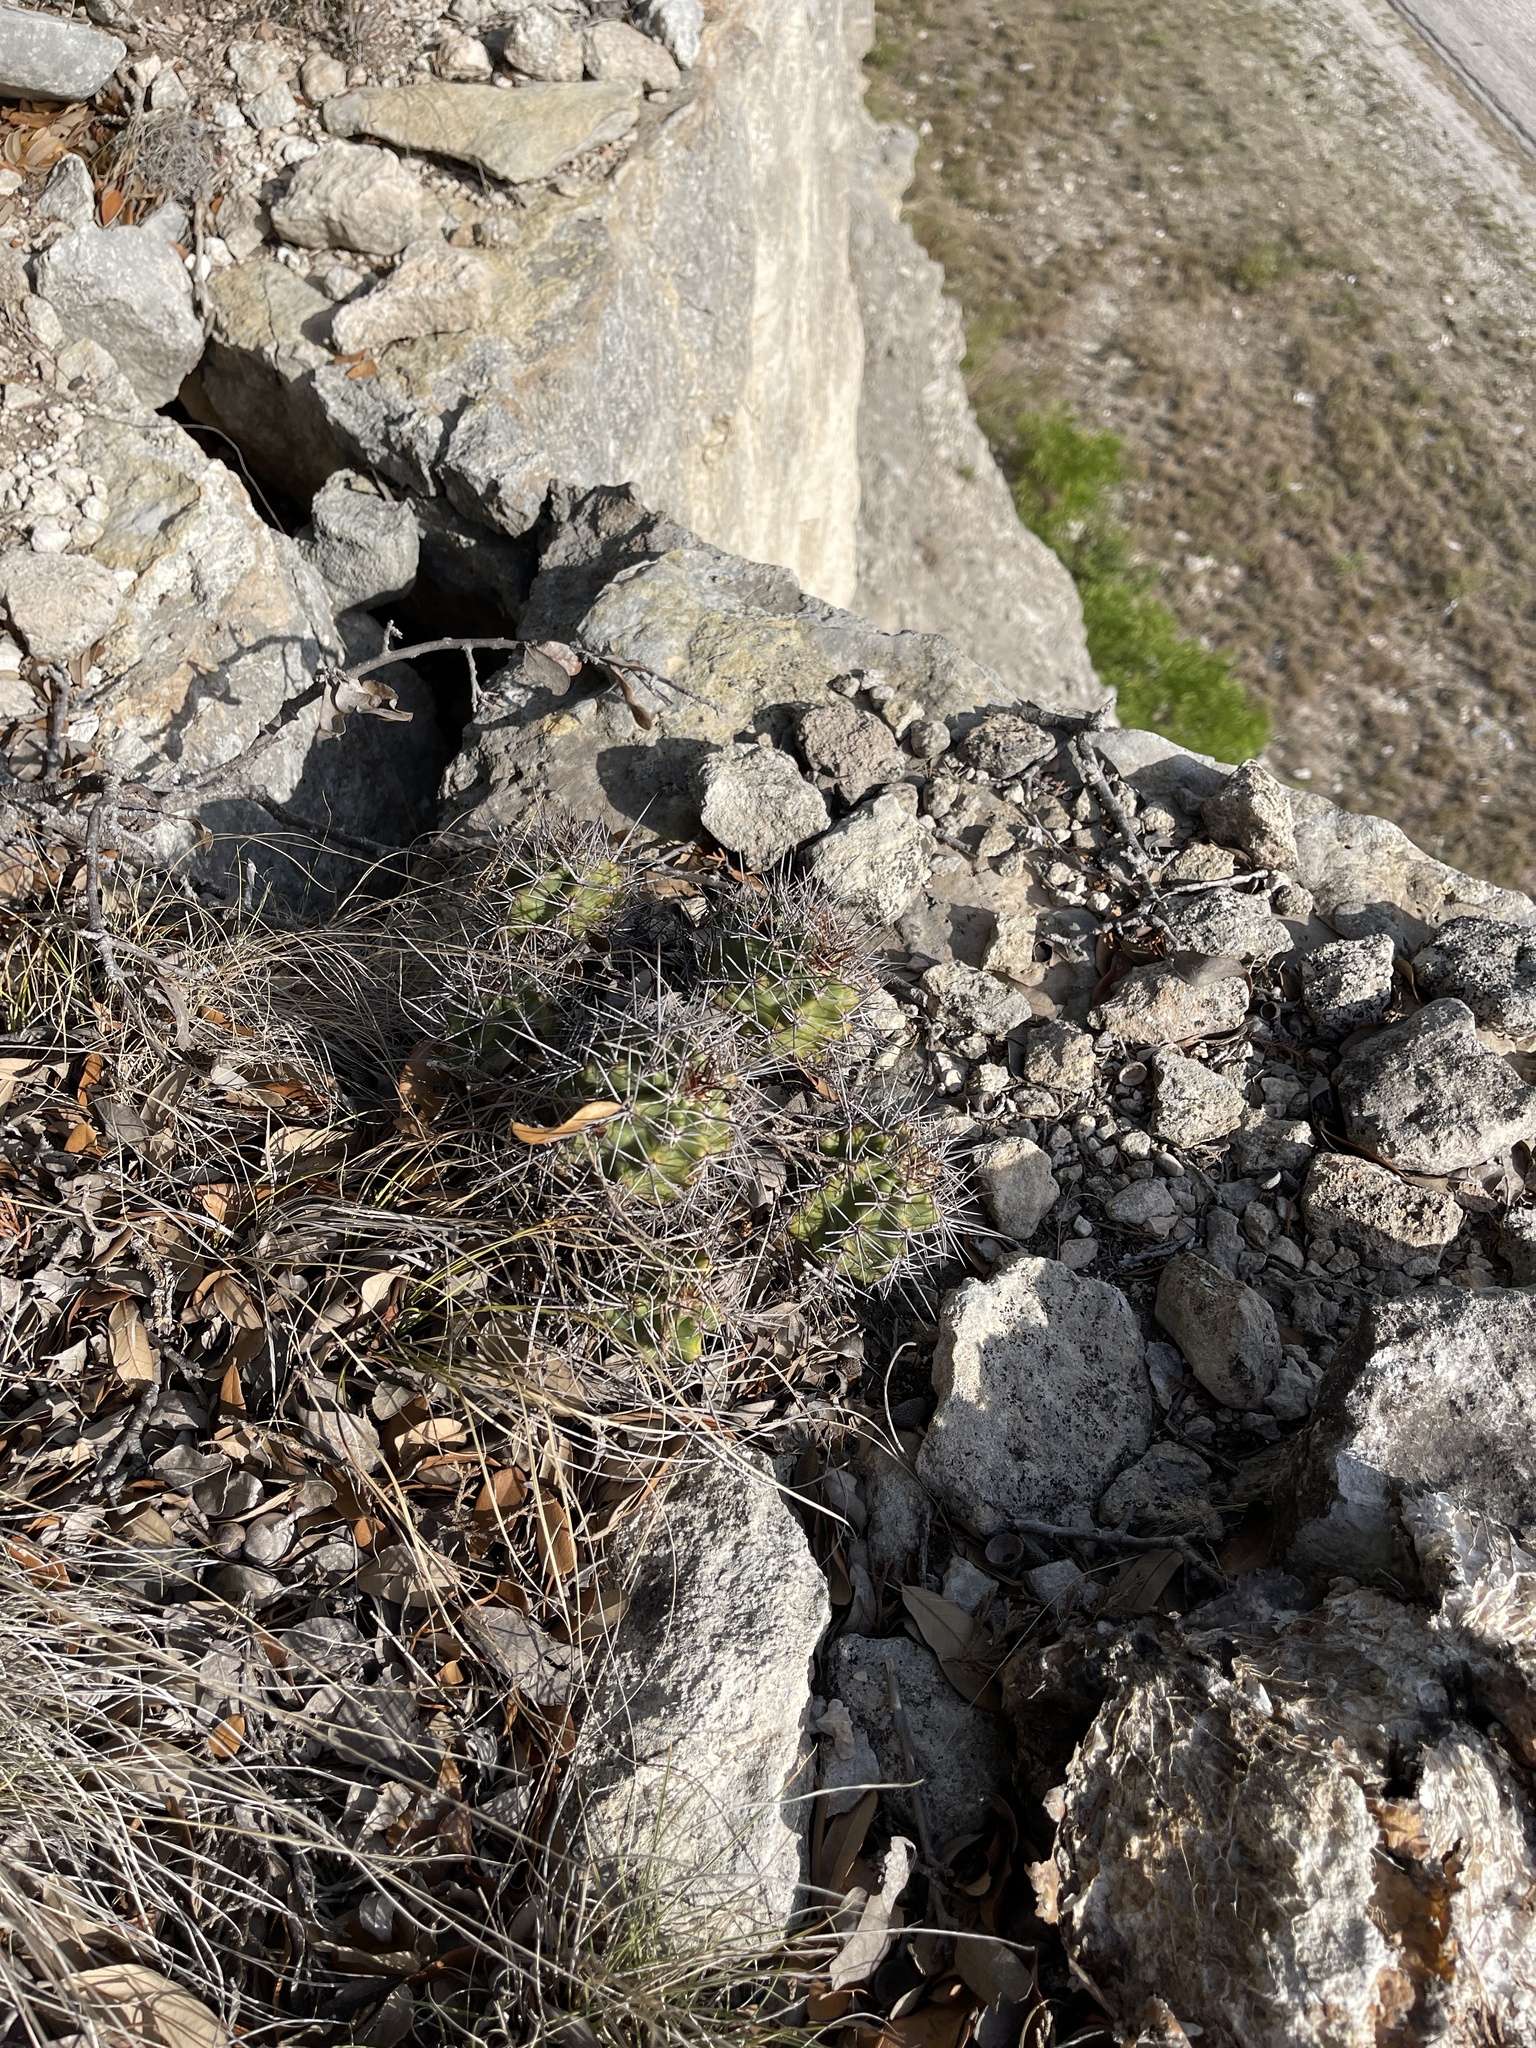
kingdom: Plantae
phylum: Tracheophyta
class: Magnoliopsida
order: Caryophyllales
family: Cactaceae
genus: Echinocereus
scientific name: Echinocereus coccineus
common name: Scarlet hedgehog cactus
